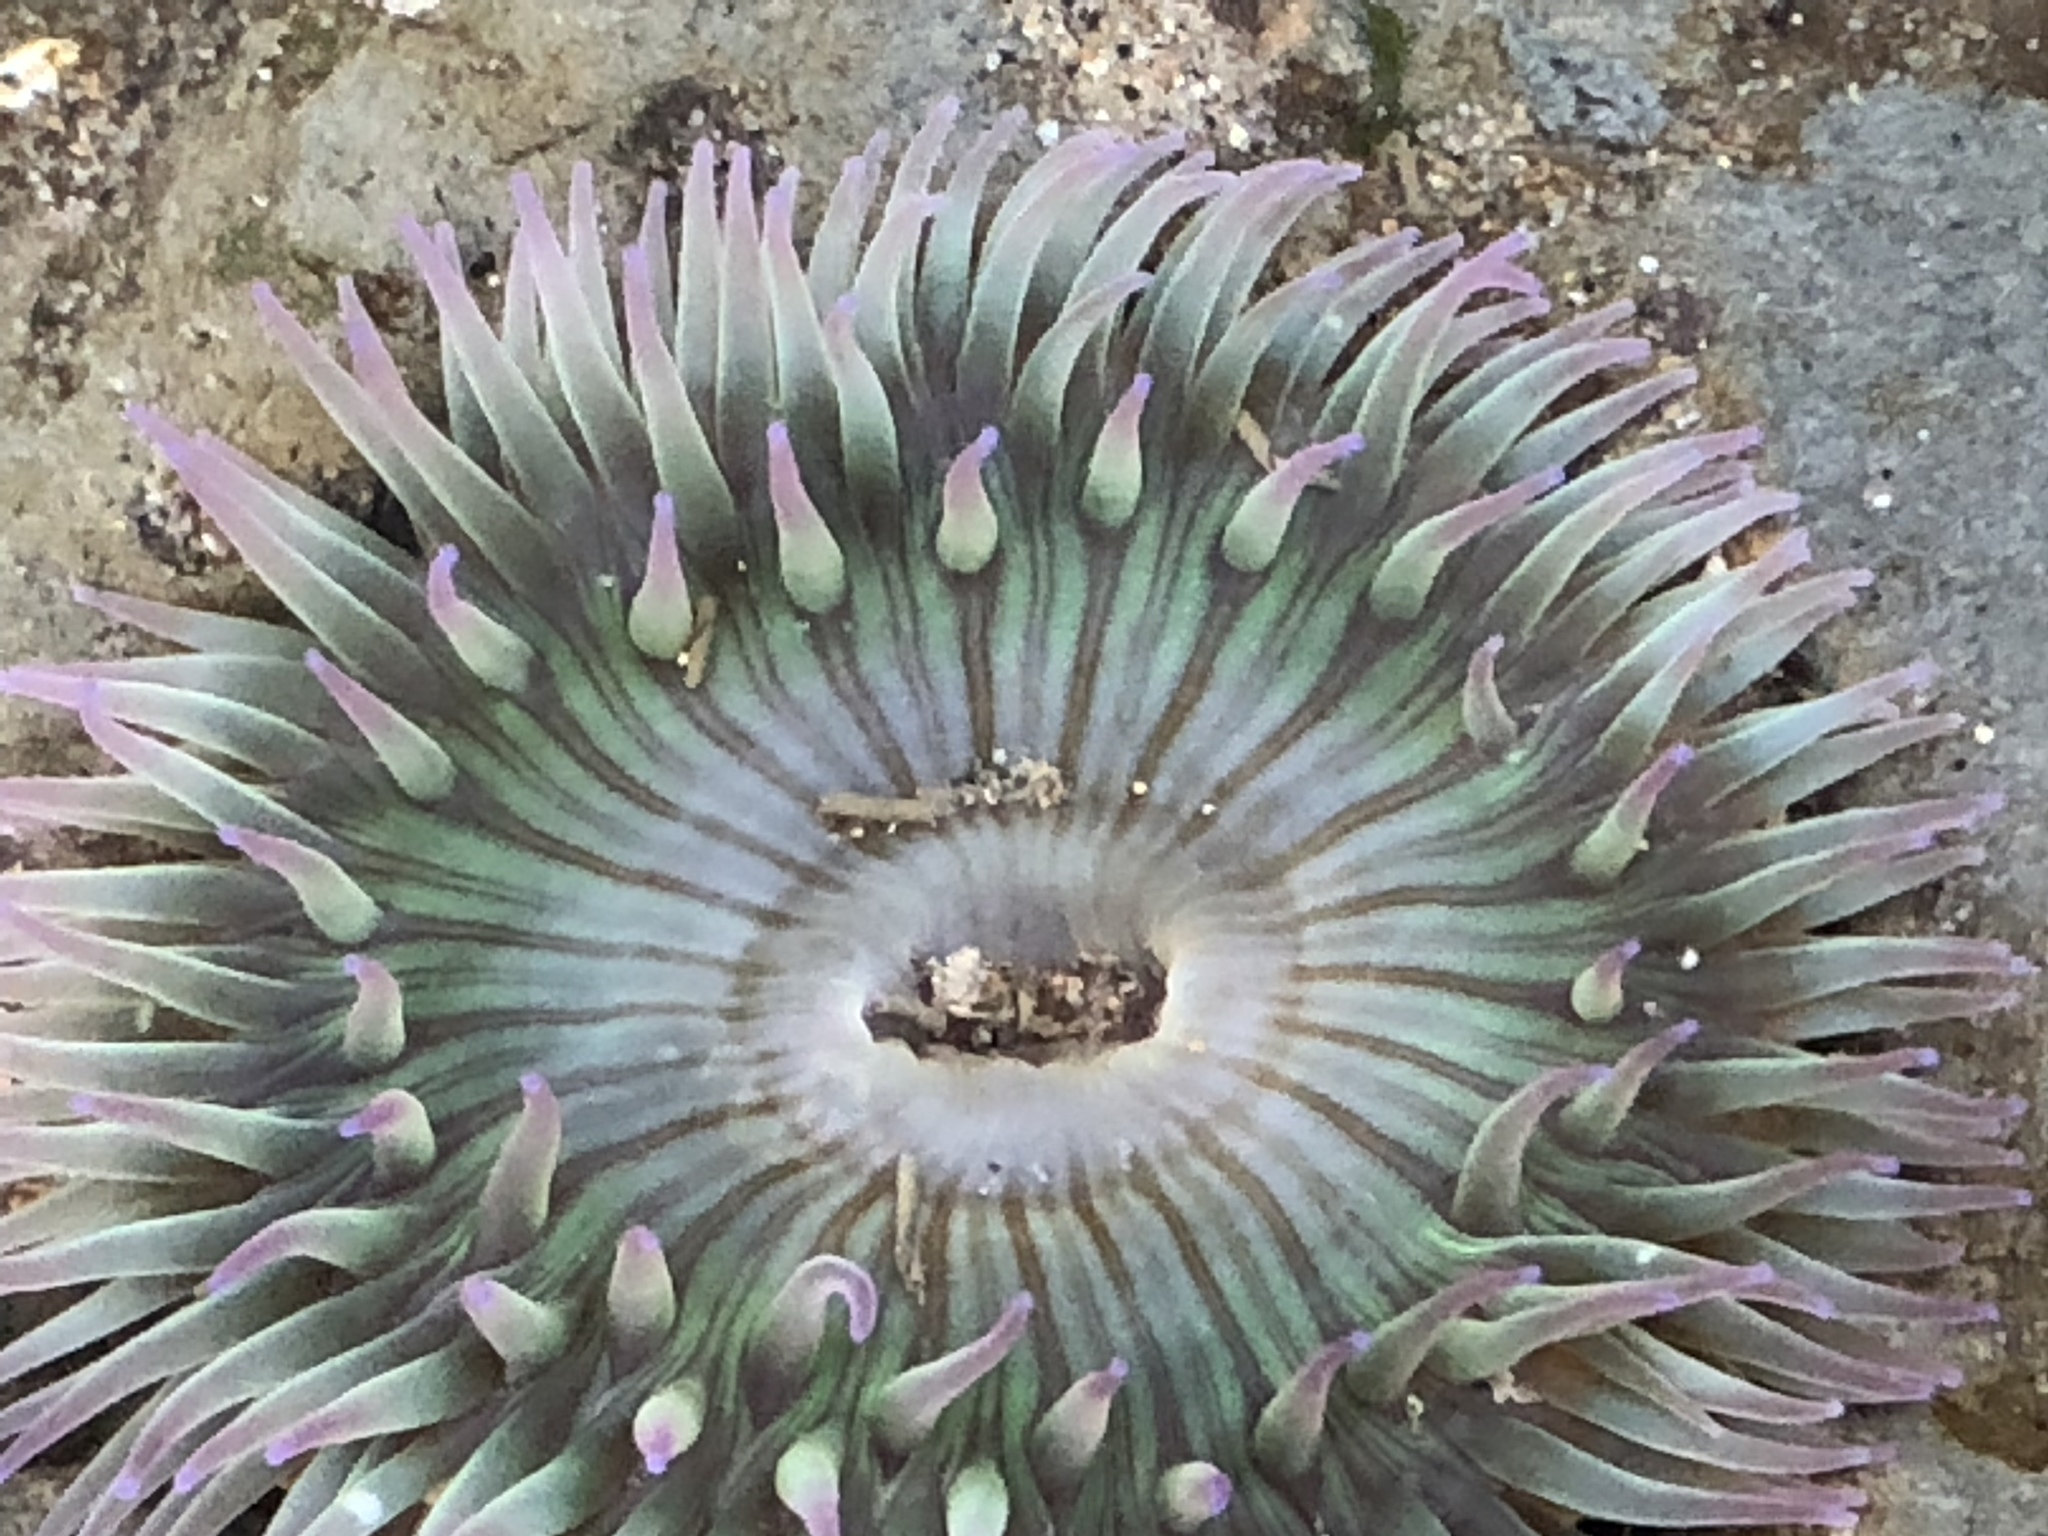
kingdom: Animalia
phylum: Cnidaria
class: Anthozoa
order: Actiniaria
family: Actiniidae
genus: Anthopleura
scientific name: Anthopleura sola
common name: Sun anemone
